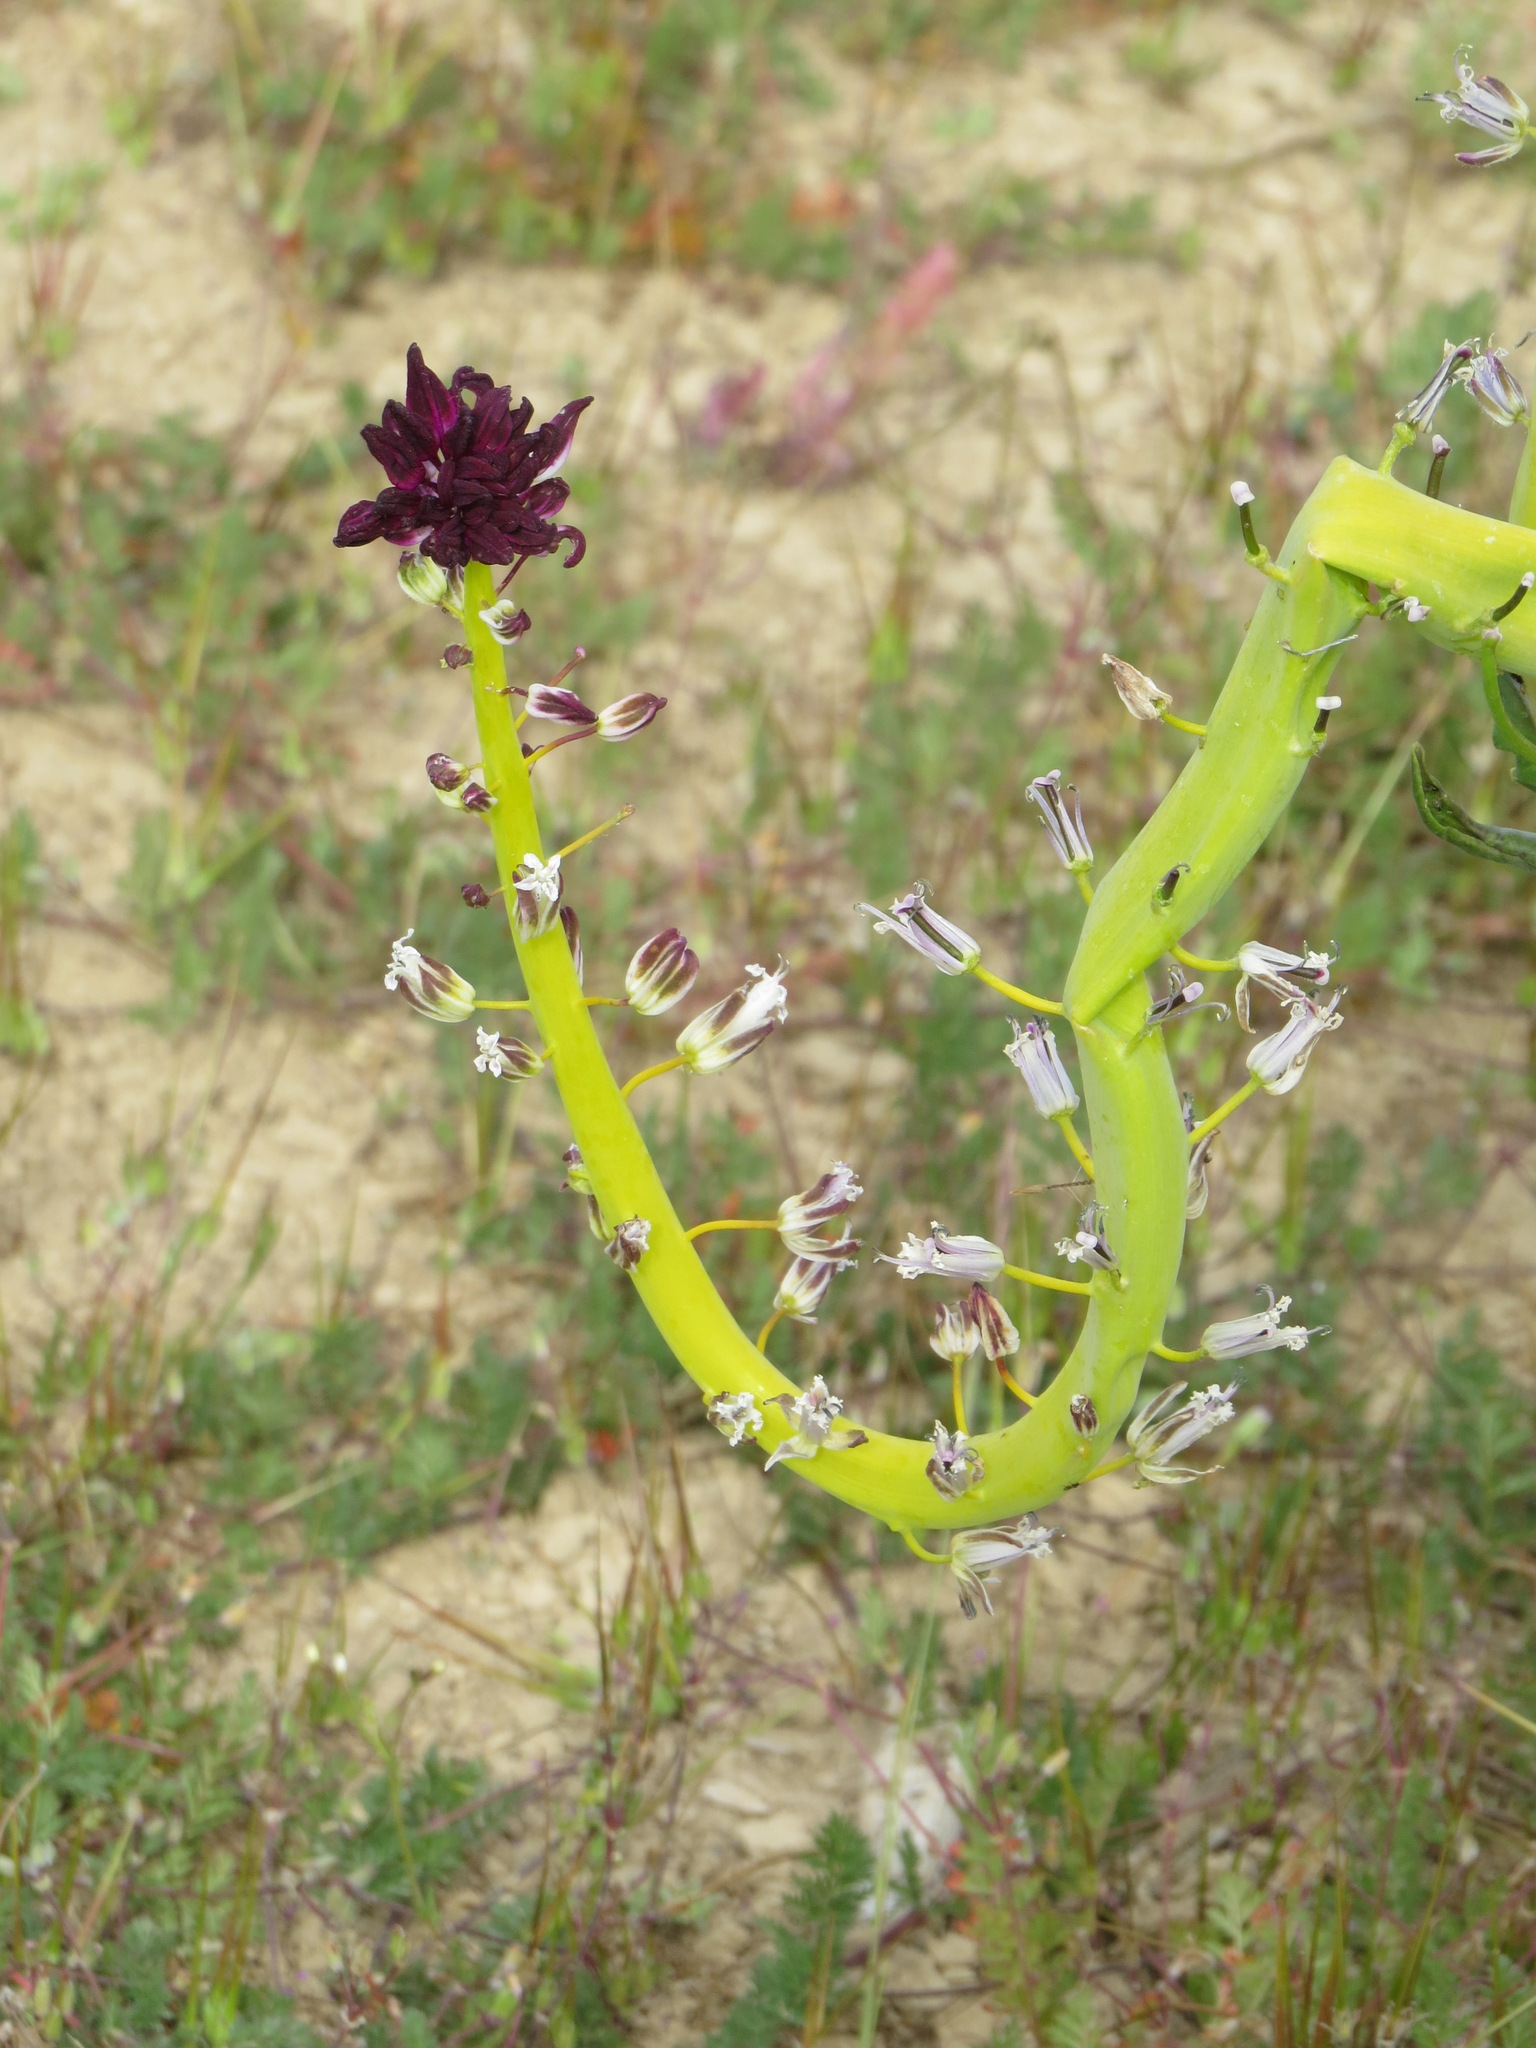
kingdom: Plantae
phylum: Tracheophyta
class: Magnoliopsida
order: Brassicales
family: Brassicaceae
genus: Streptanthus
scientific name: Streptanthus inflatus
